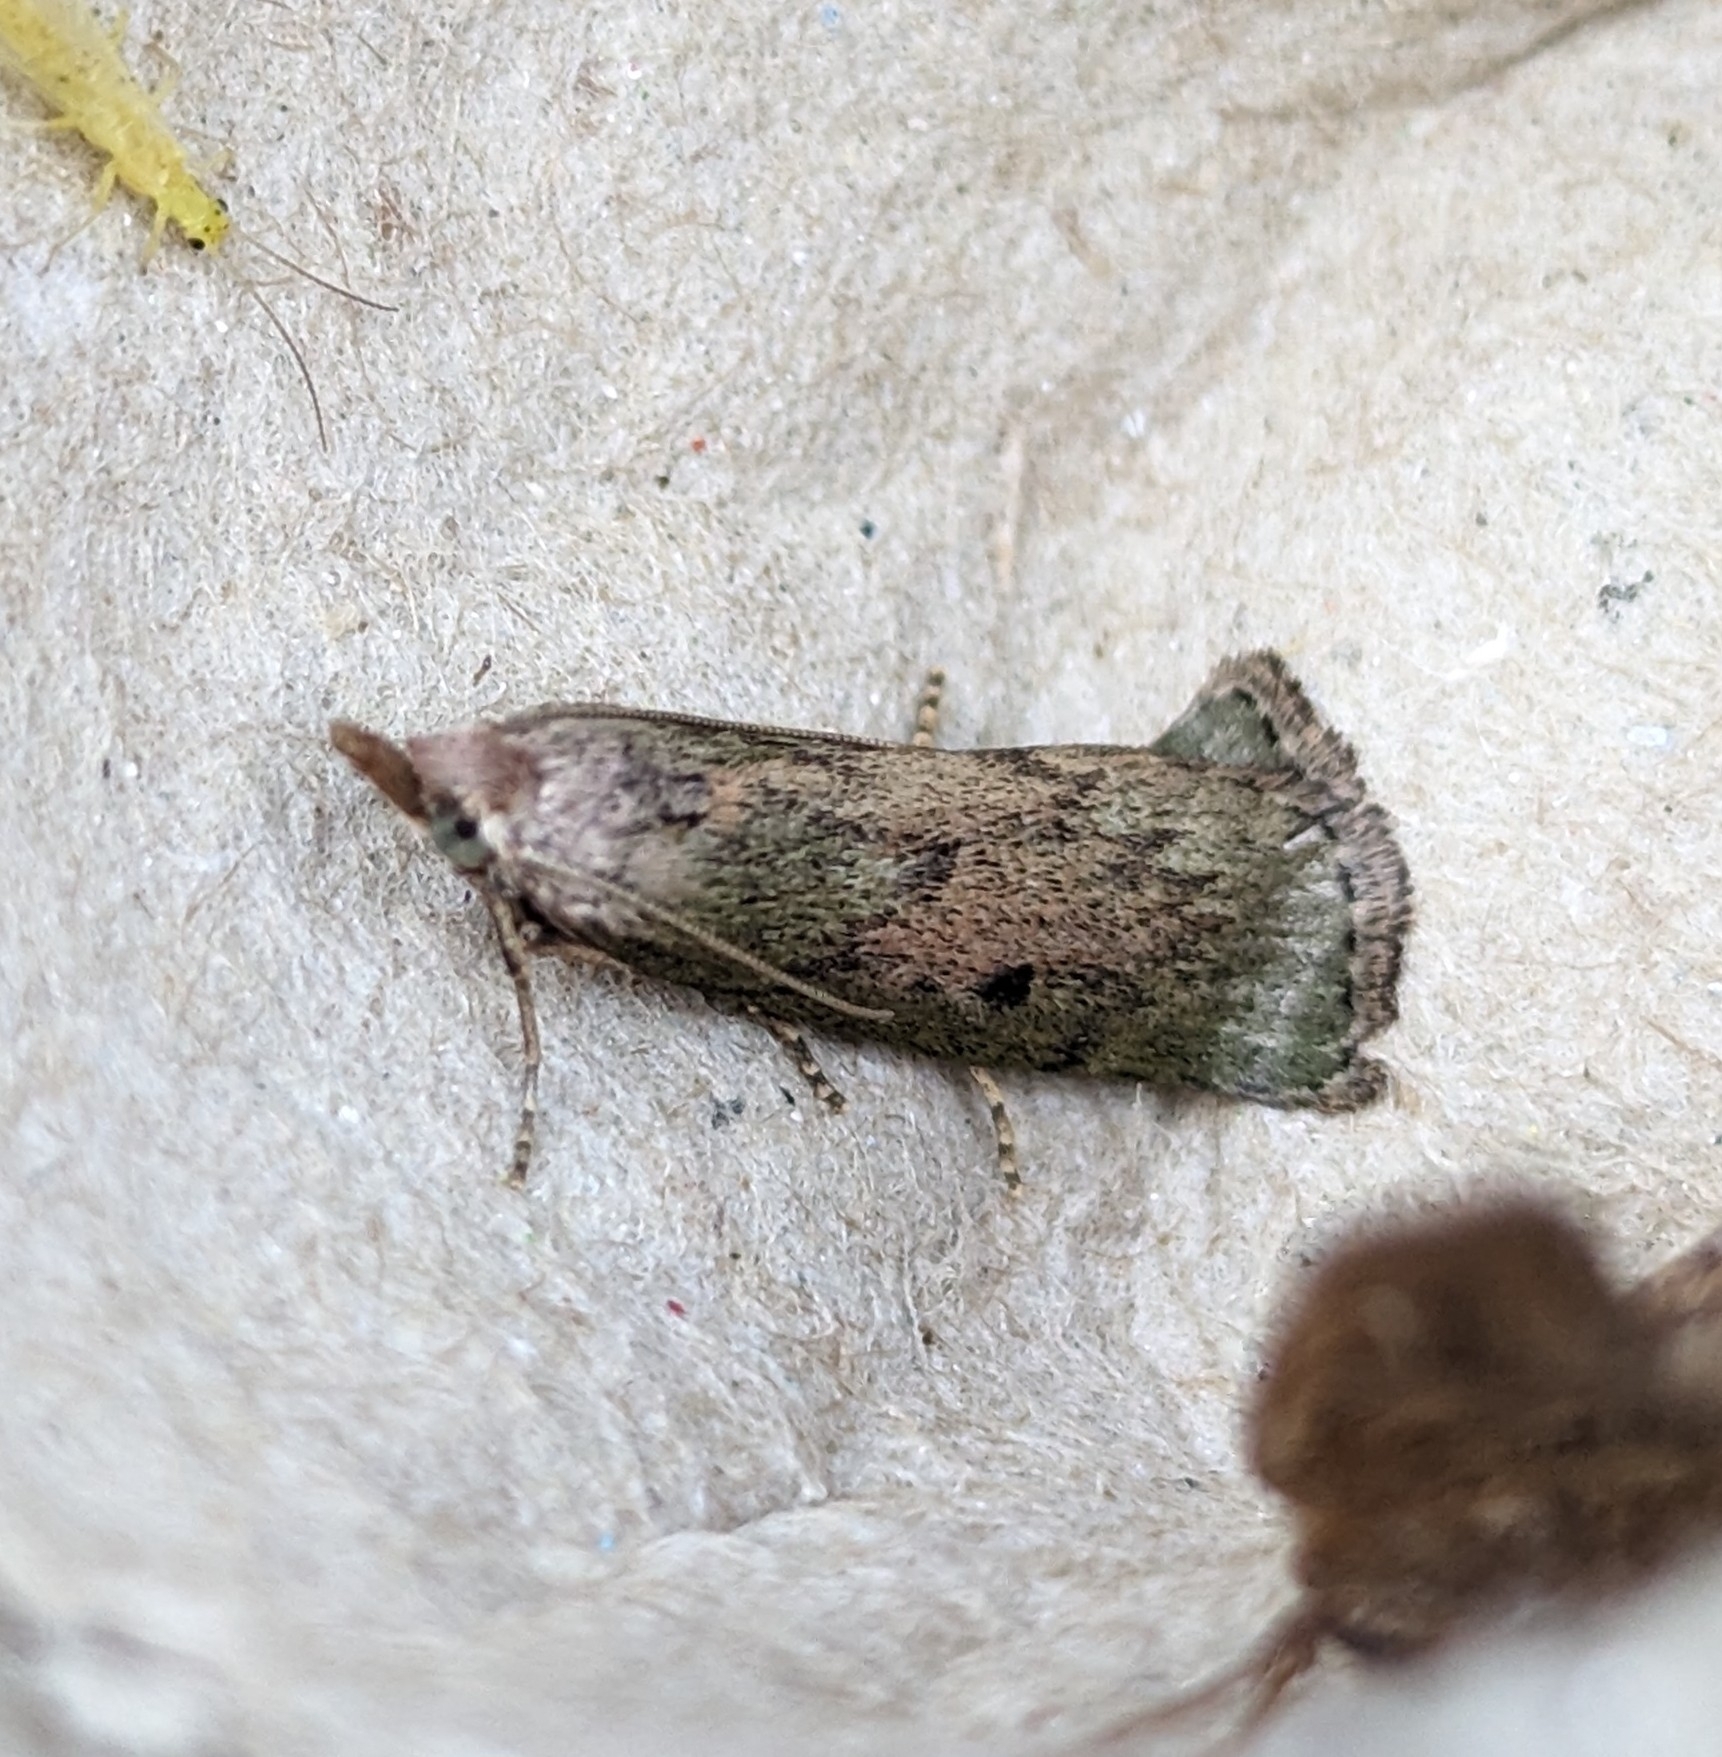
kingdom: Animalia
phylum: Arthropoda
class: Insecta
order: Lepidoptera
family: Pyralidae
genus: Aphomia
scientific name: Aphomia sociella
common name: Bee moth
